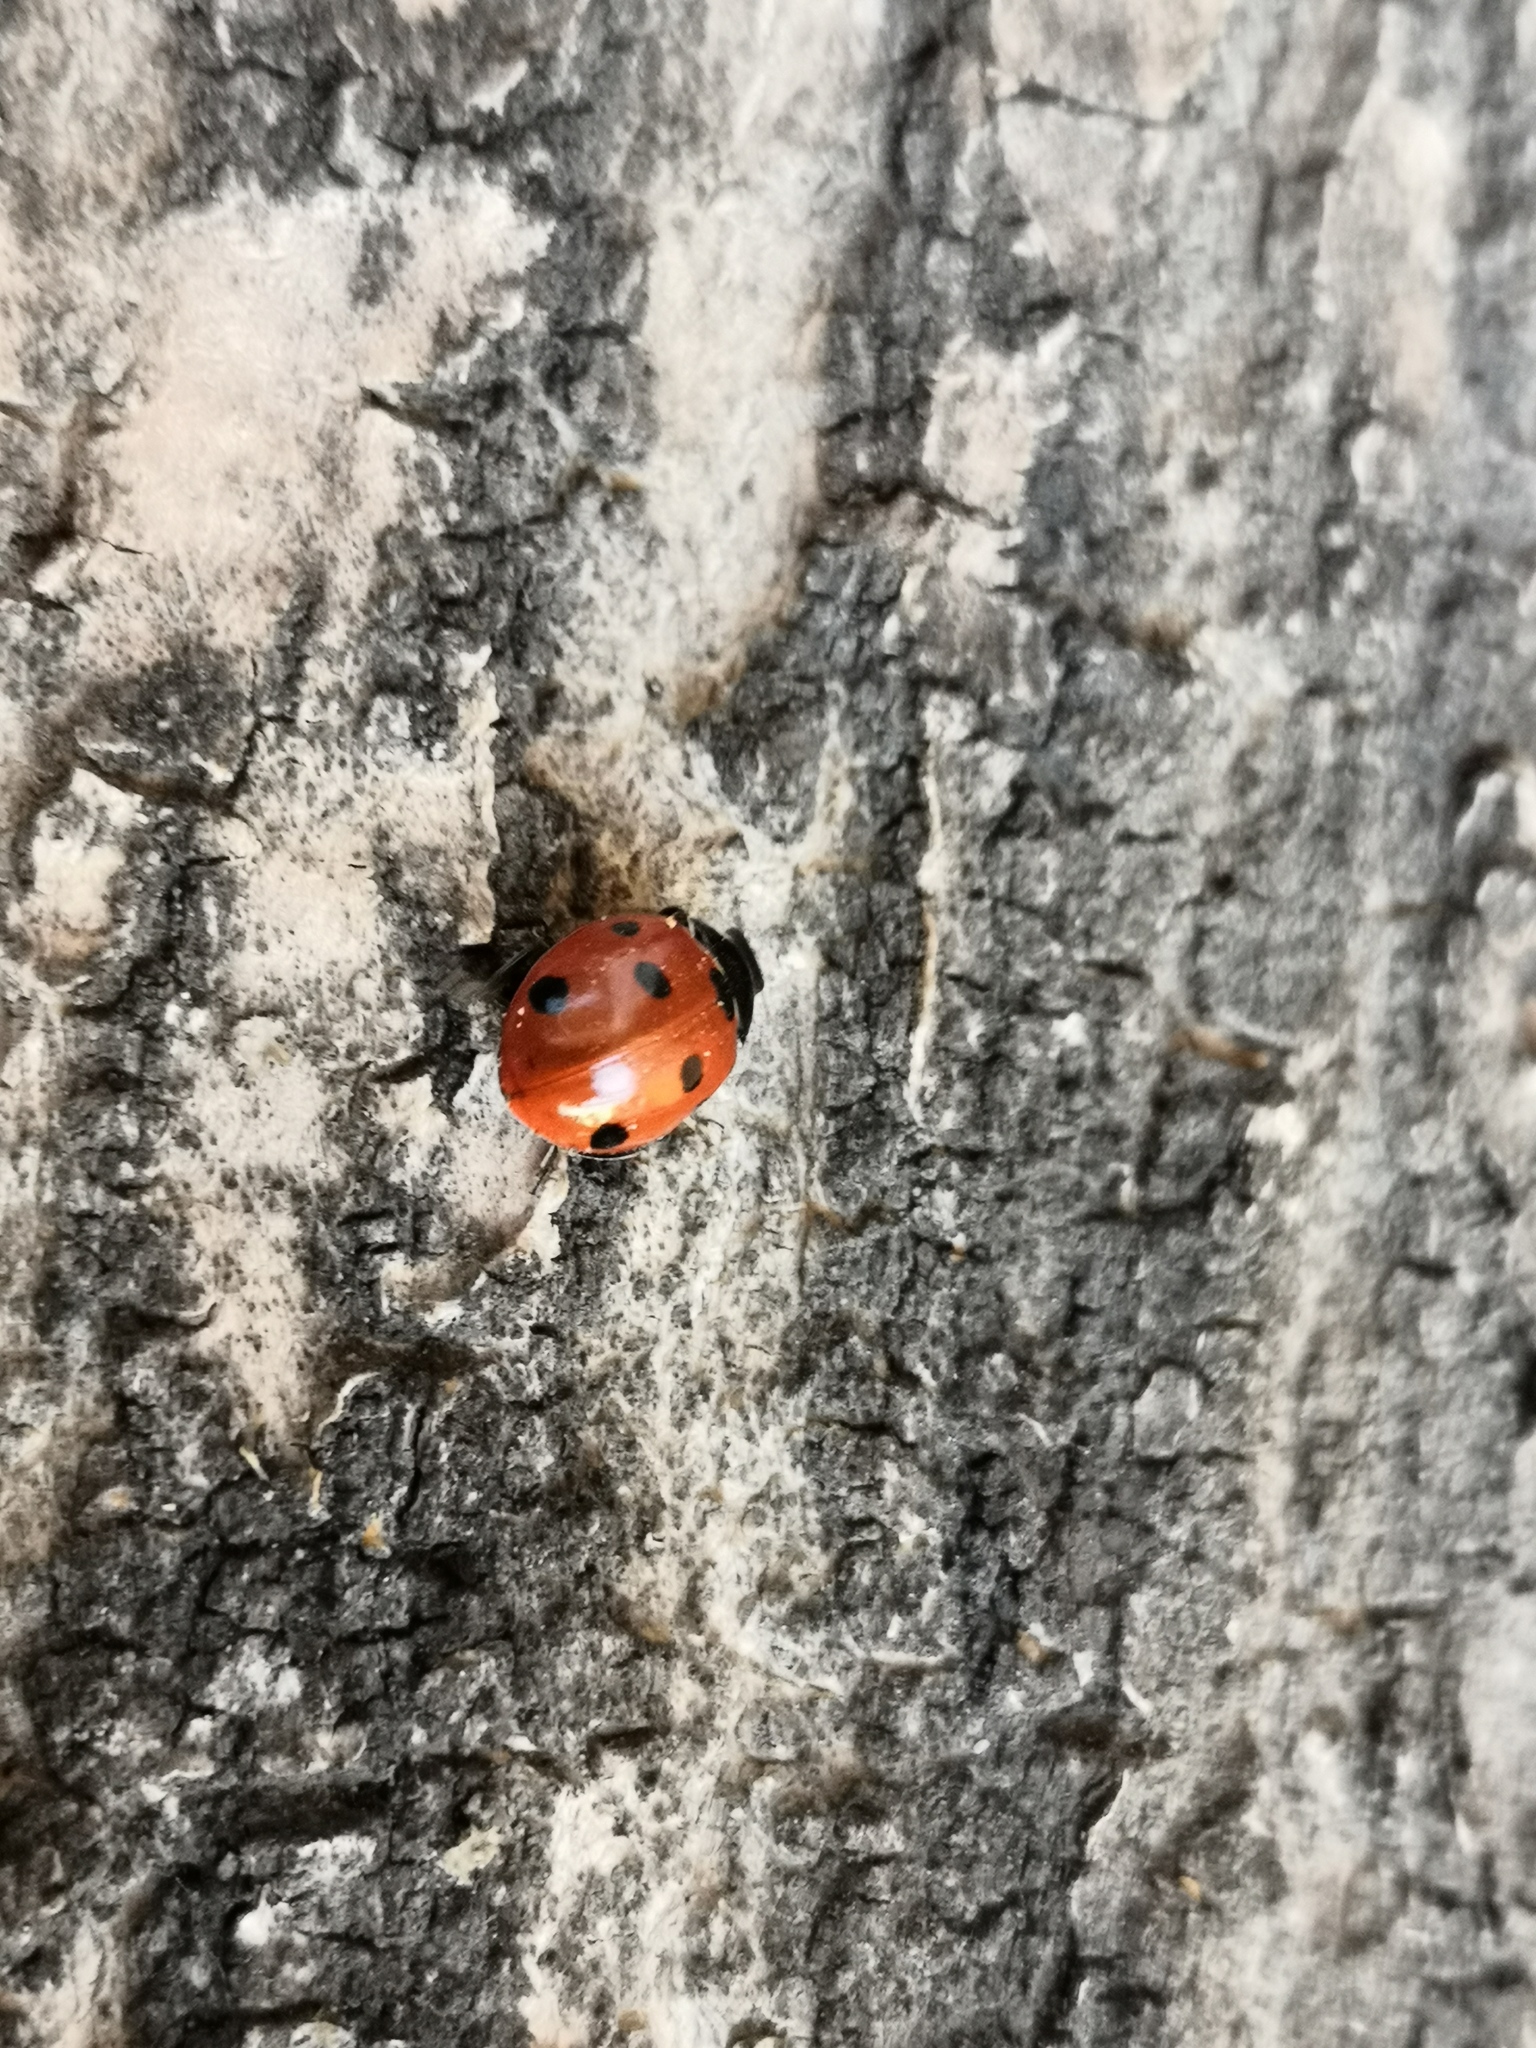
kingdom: Animalia
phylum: Arthropoda
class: Insecta
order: Coleoptera
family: Coccinellidae
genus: Coccinella
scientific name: Coccinella septempunctata
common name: Sevenspotted lady beetle
